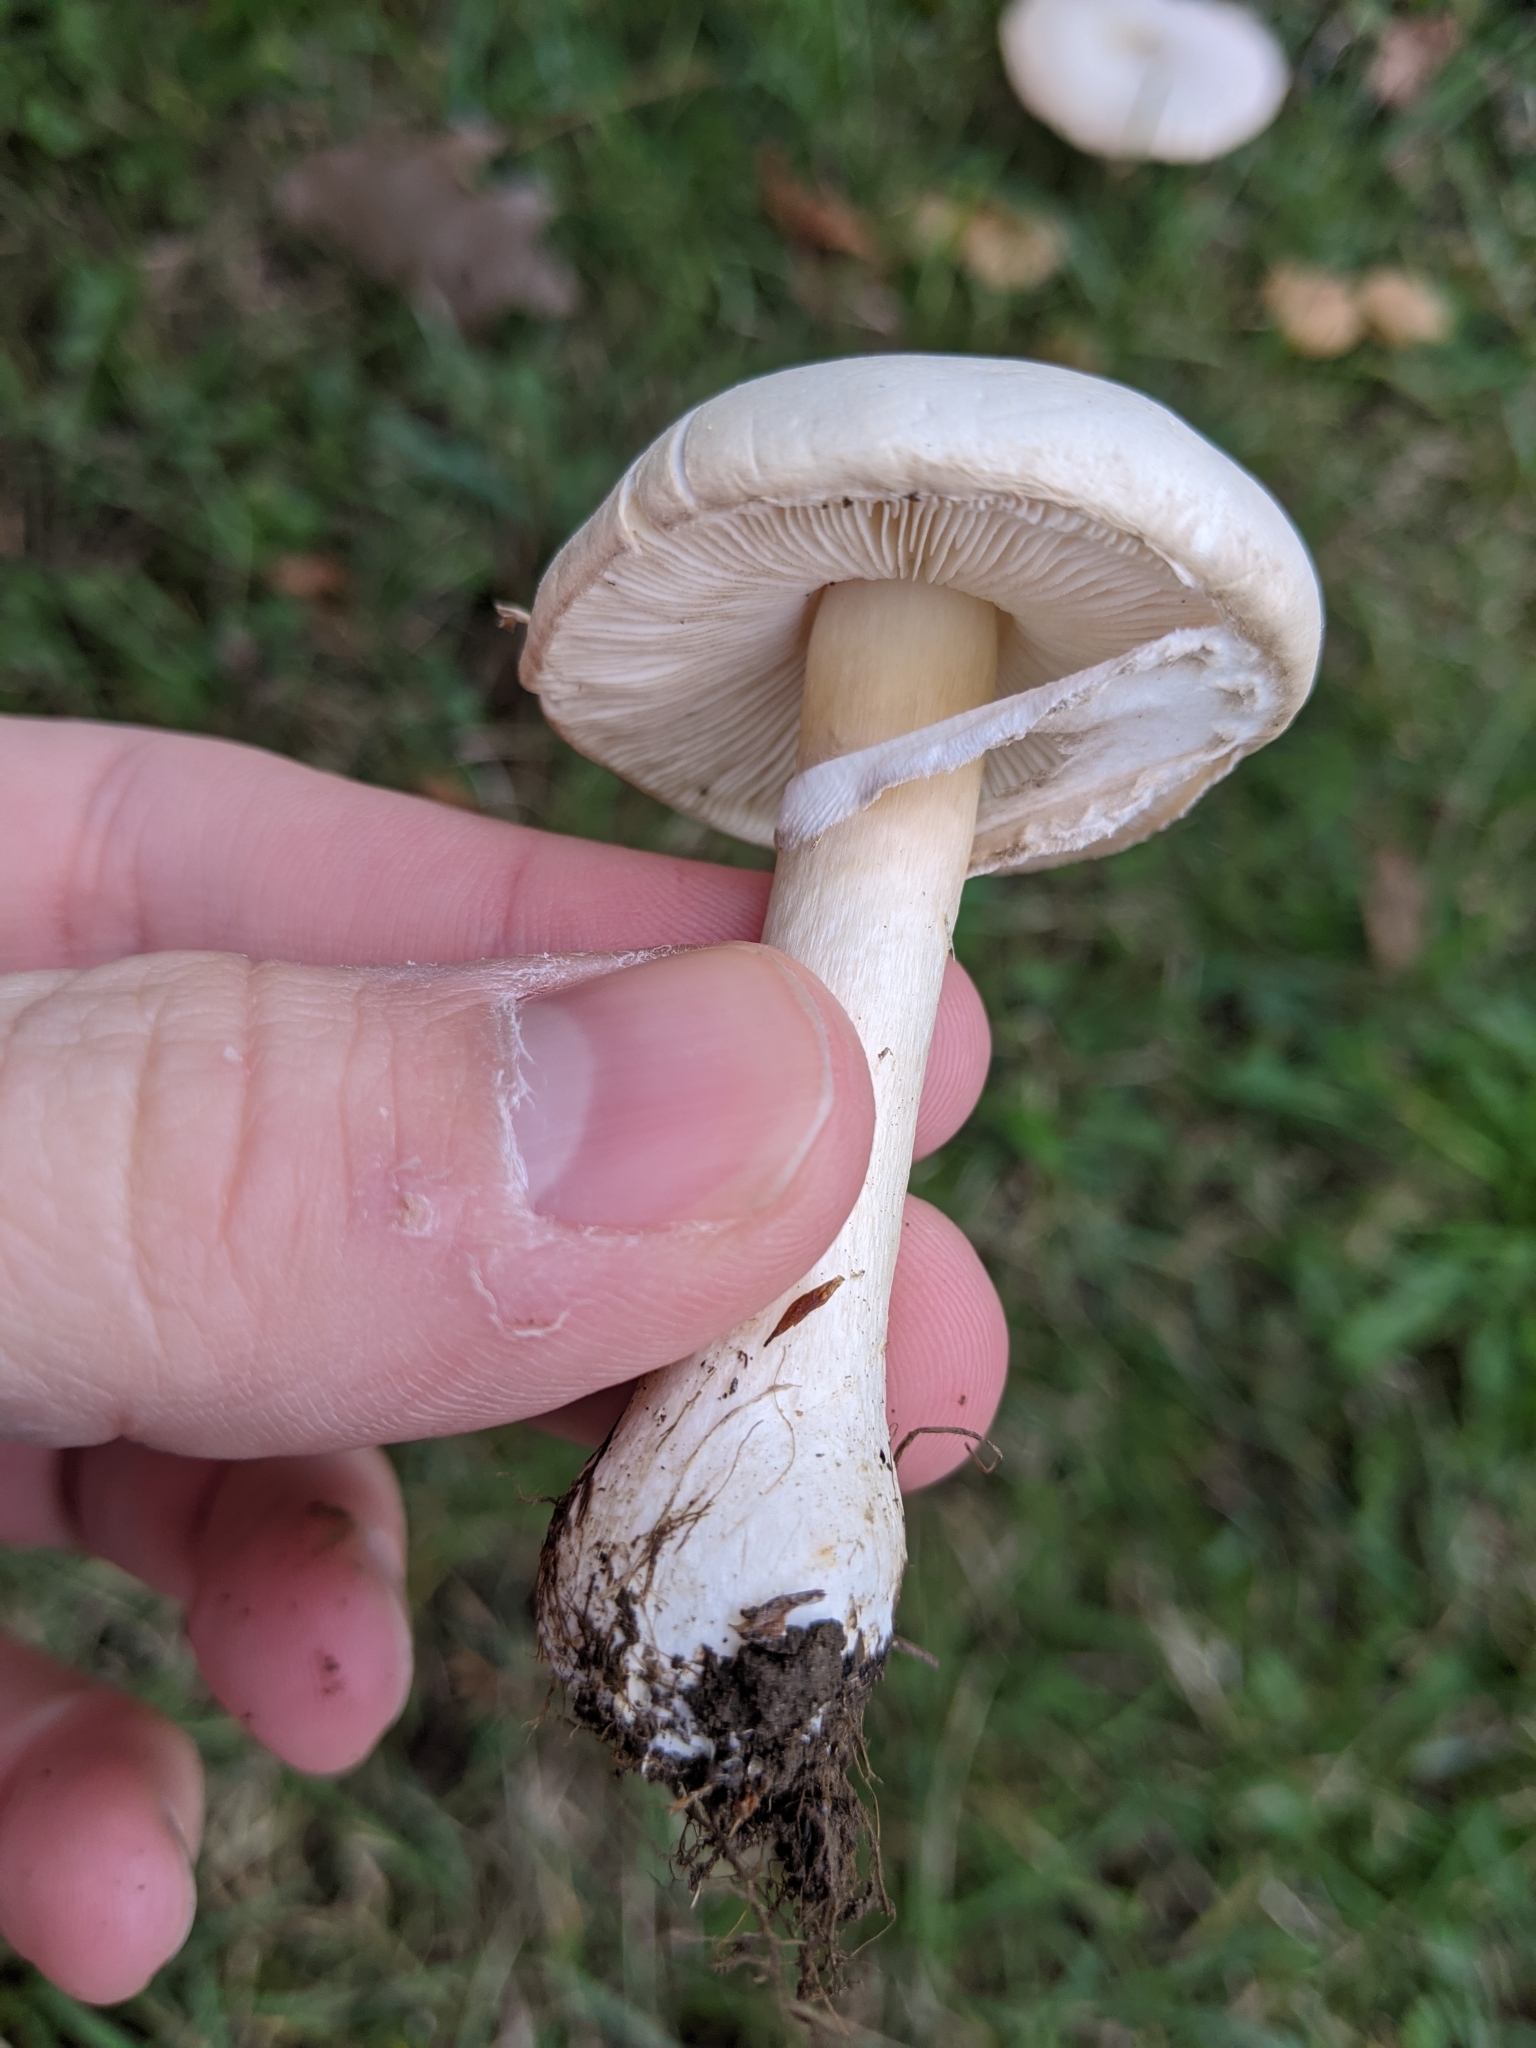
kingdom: Fungi
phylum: Basidiomycota
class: Agaricomycetes
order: Agaricales
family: Agaricaceae
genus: Leucoagaricus
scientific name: Leucoagaricus leucothites
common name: White dapperling
